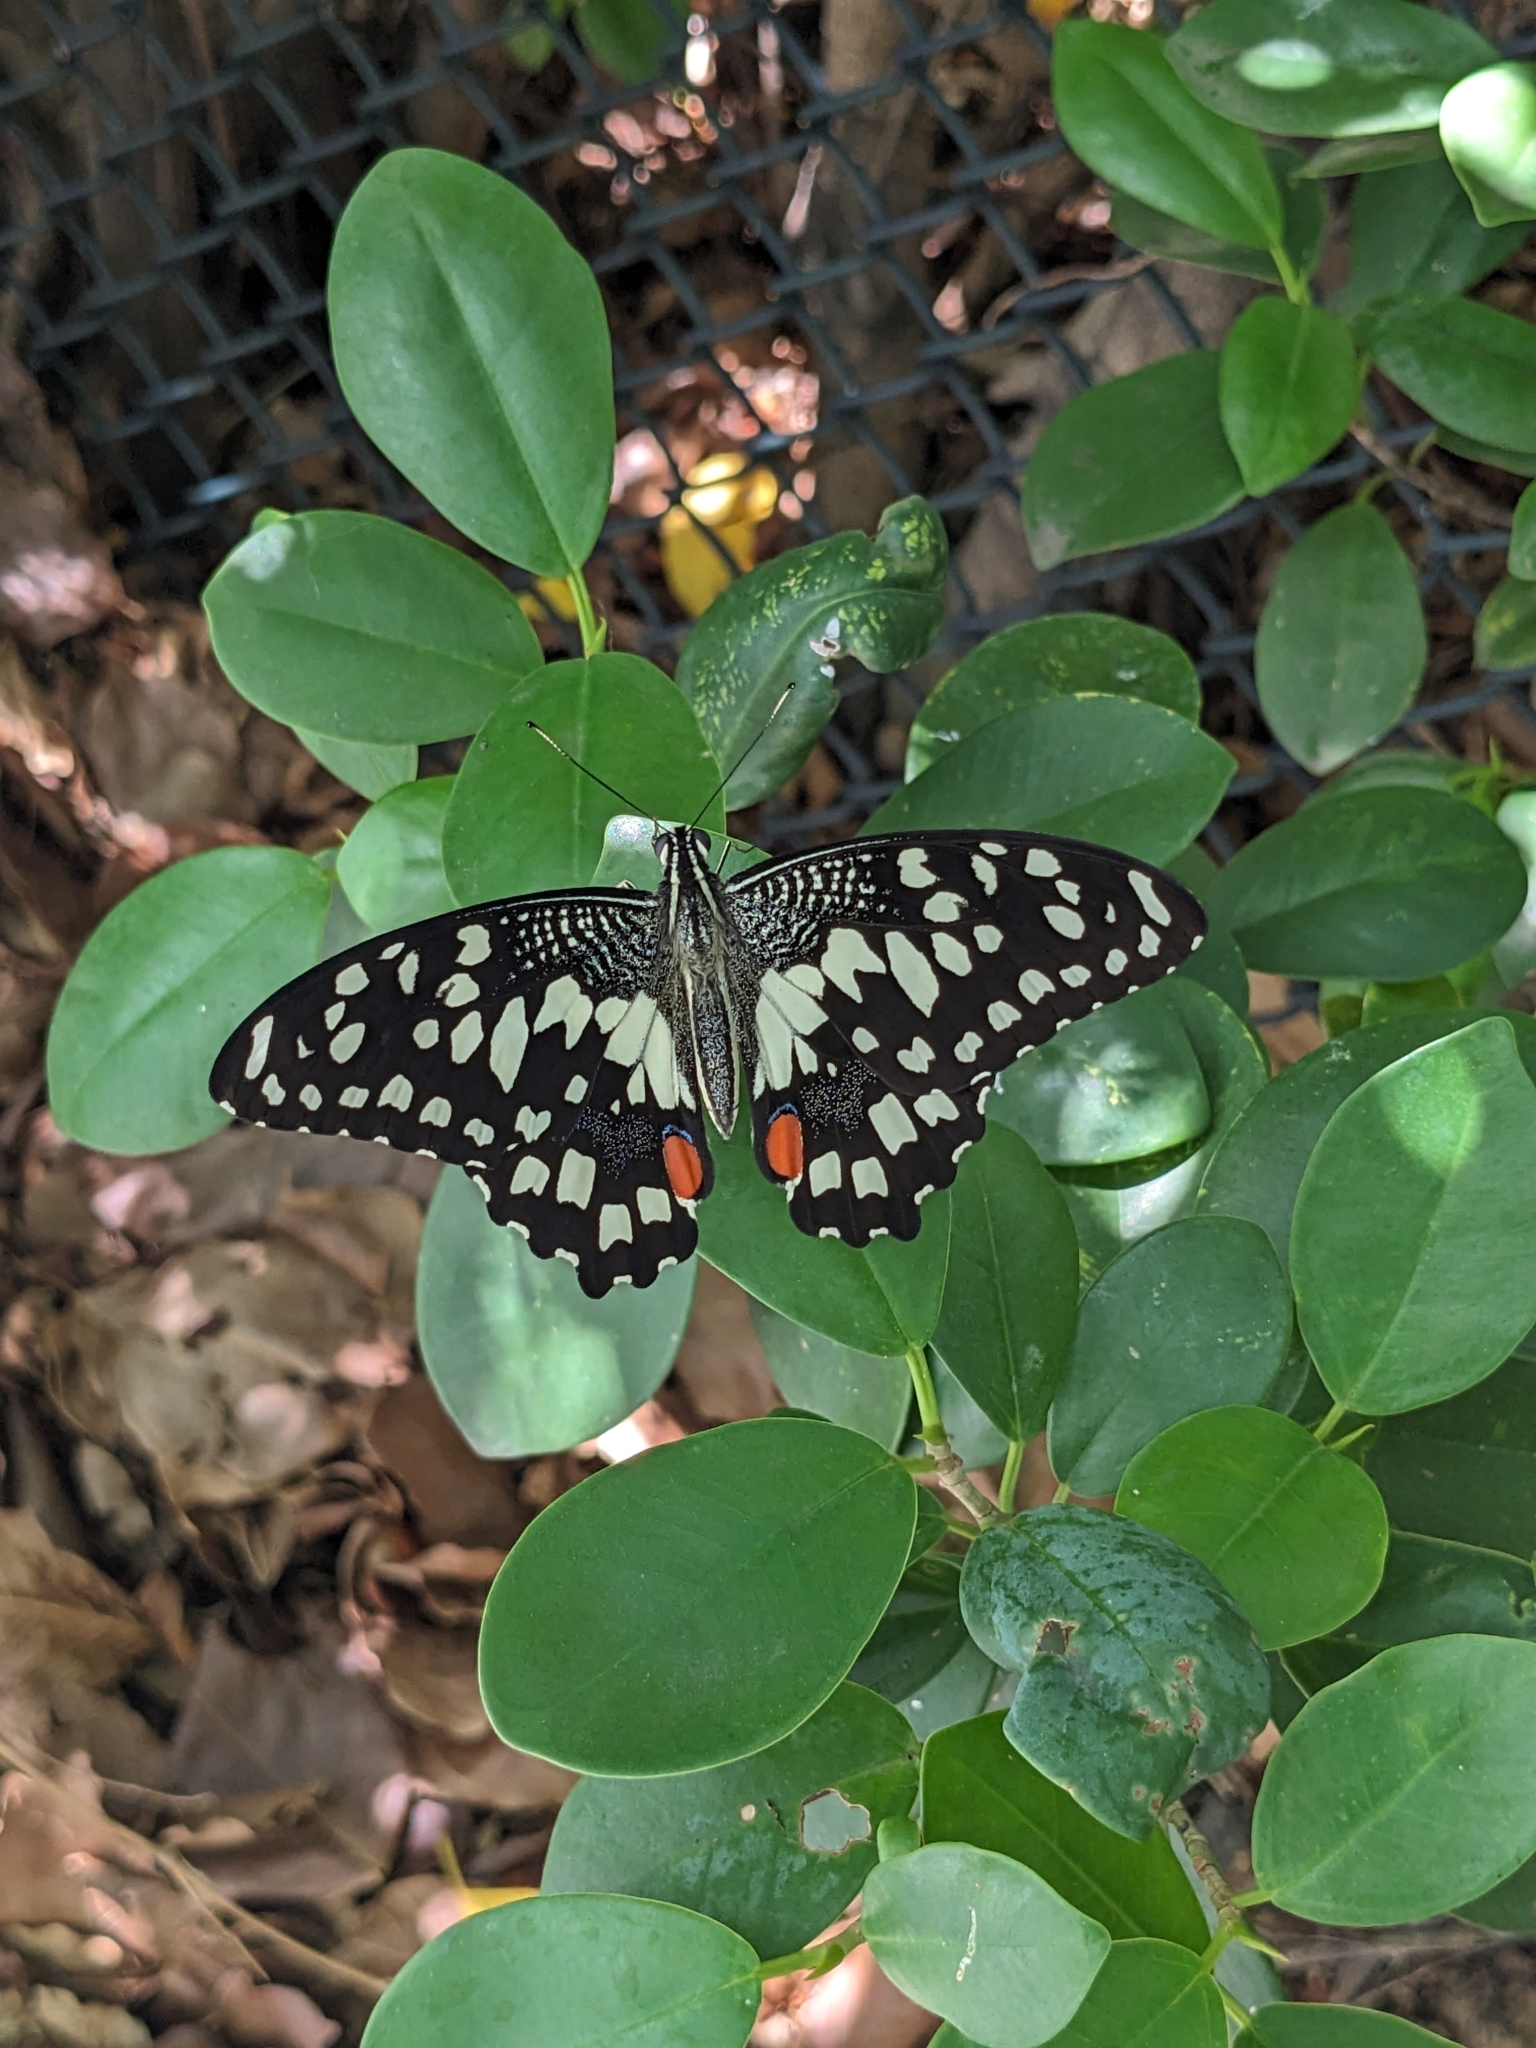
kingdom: Animalia
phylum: Arthropoda
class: Insecta
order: Lepidoptera
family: Papilionidae
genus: Papilio
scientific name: Papilio demoleus
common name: Lime butterfly
